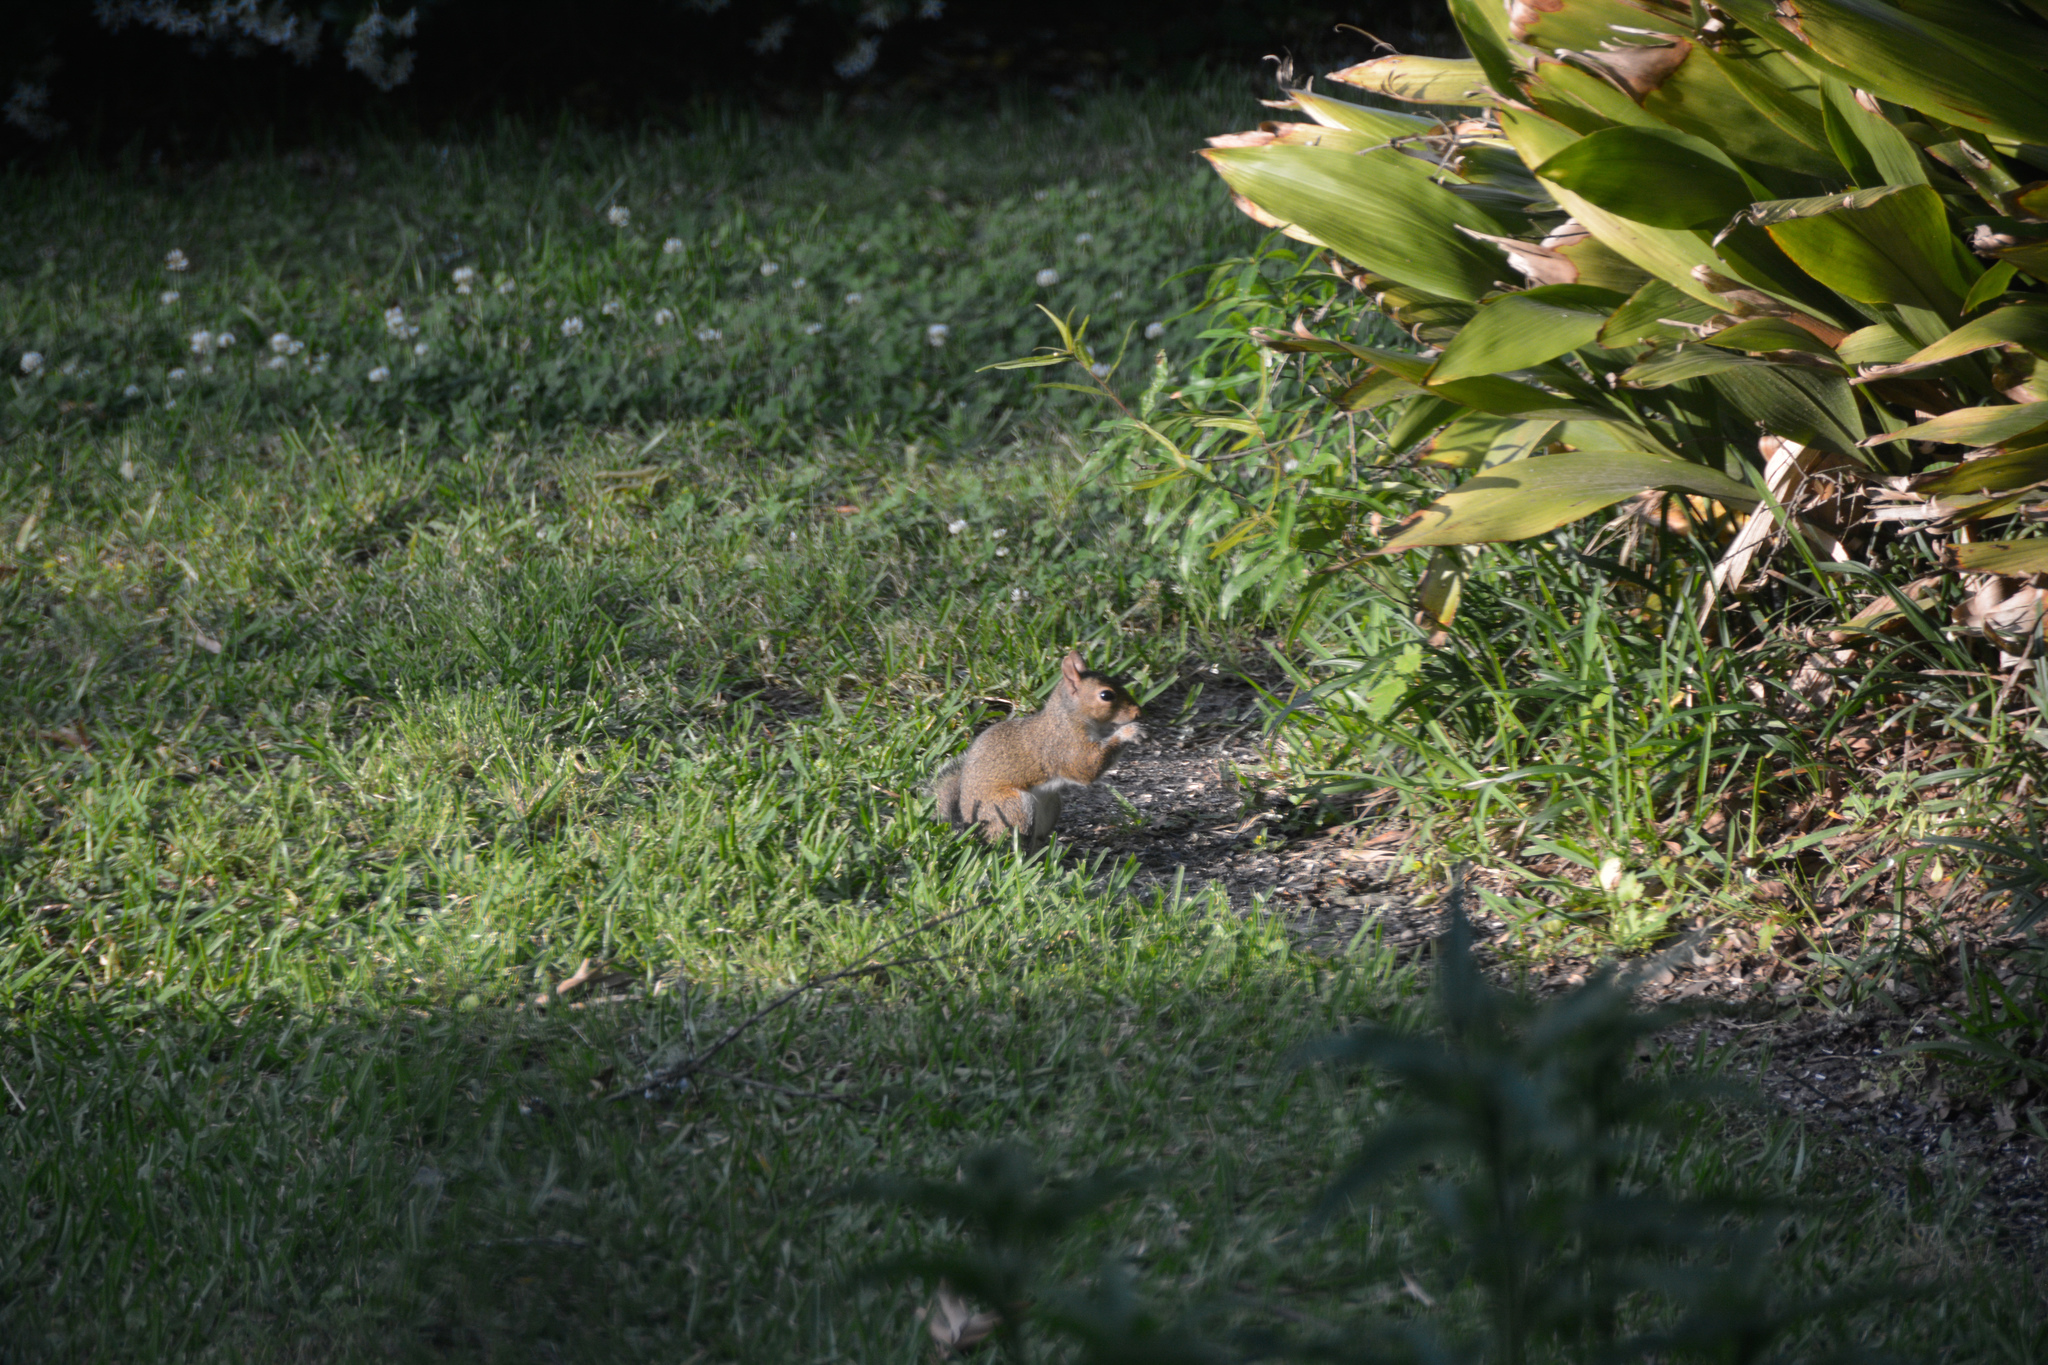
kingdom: Animalia
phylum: Chordata
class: Mammalia
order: Rodentia
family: Sciuridae
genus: Sciurus
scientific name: Sciurus carolinensis
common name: Eastern gray squirrel
